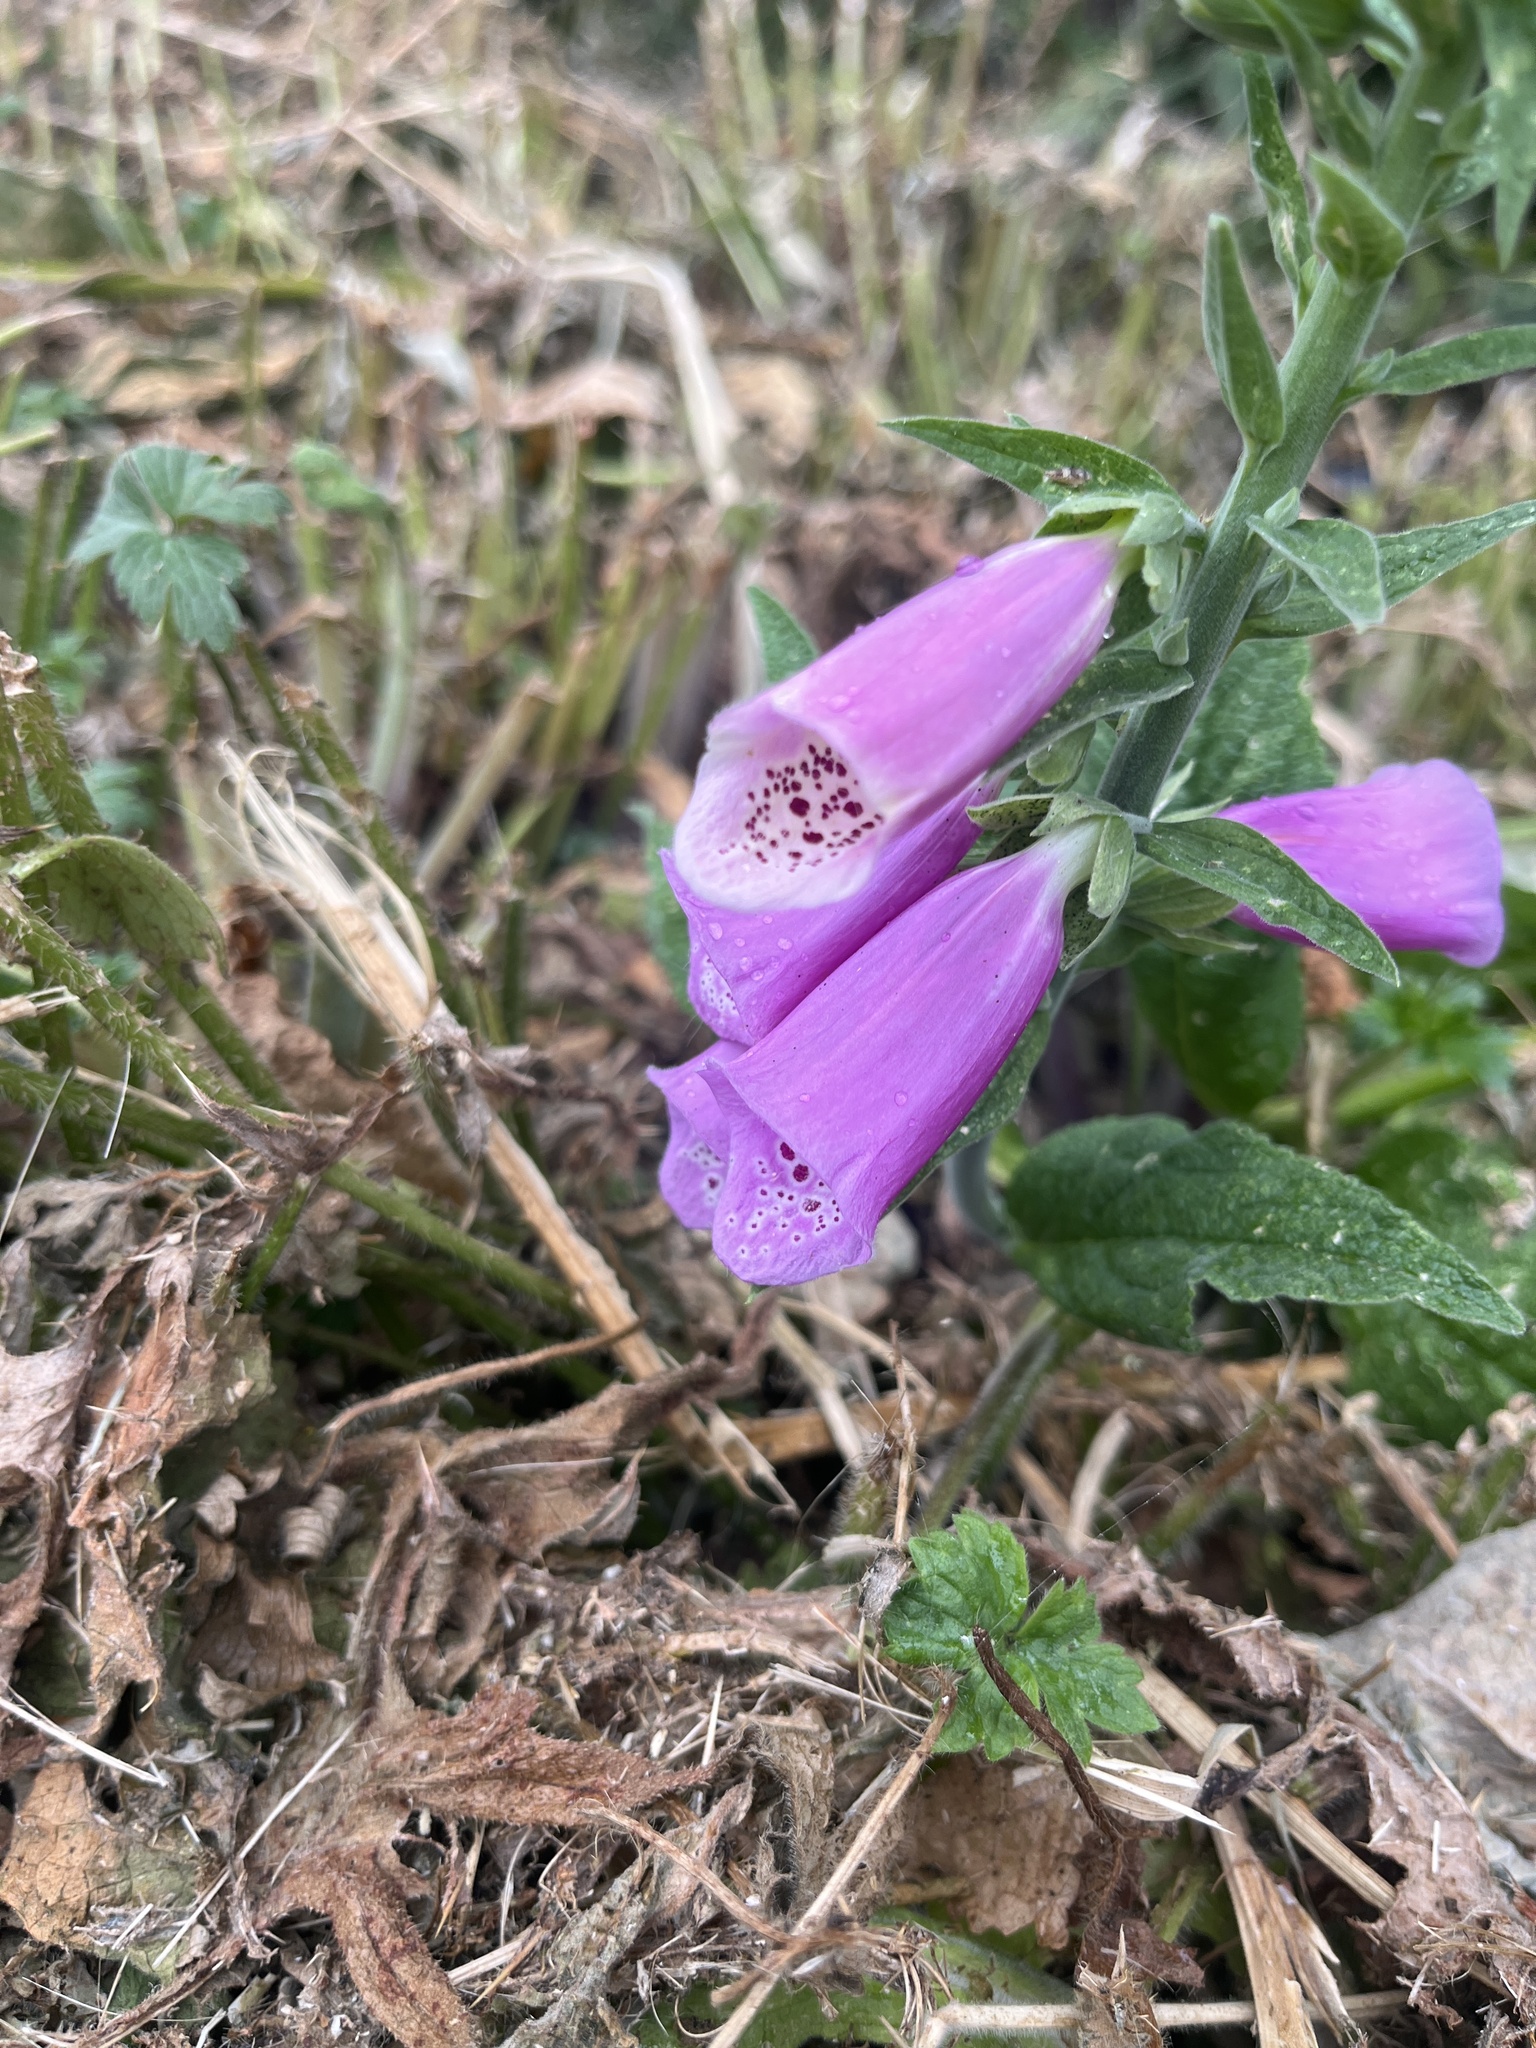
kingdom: Plantae
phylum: Tracheophyta
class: Magnoliopsida
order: Lamiales
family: Plantaginaceae
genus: Digitalis
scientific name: Digitalis purpurea
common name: Foxglove
